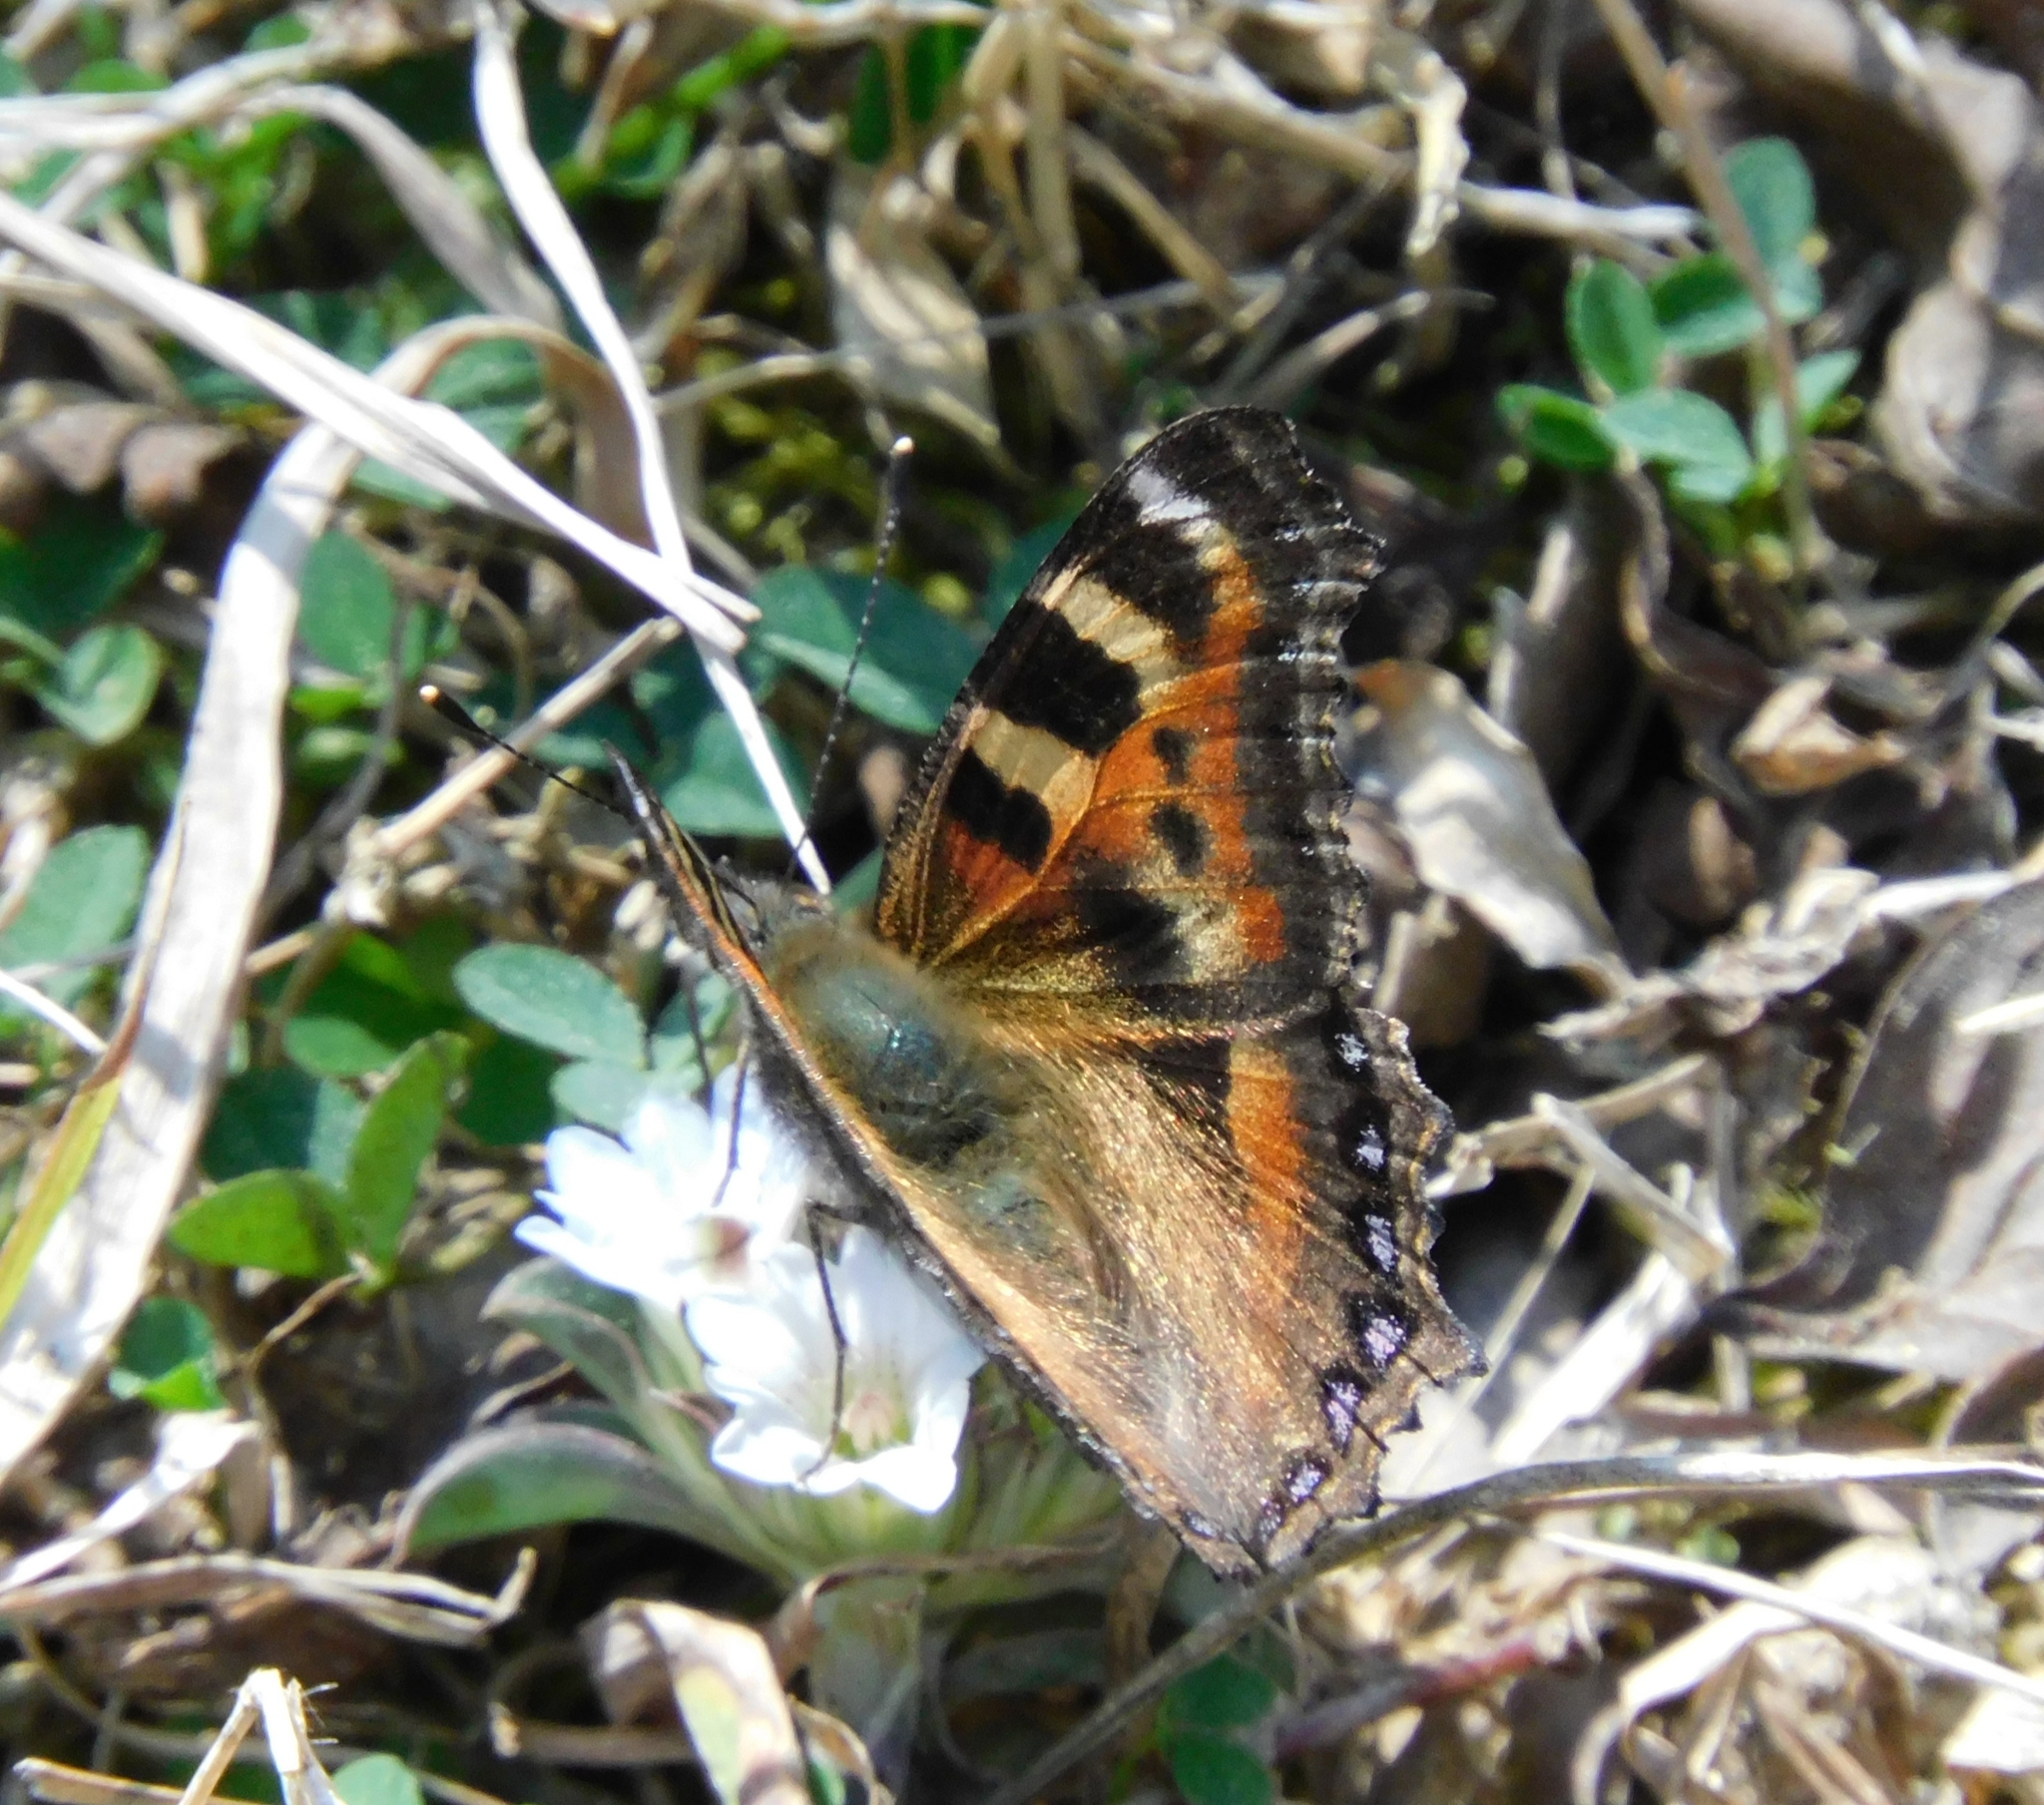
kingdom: Animalia
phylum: Arthropoda
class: Insecta
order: Lepidoptera
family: Nymphalidae
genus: Aglais
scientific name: Aglais caschmirensis
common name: Indian tortoiseshell
